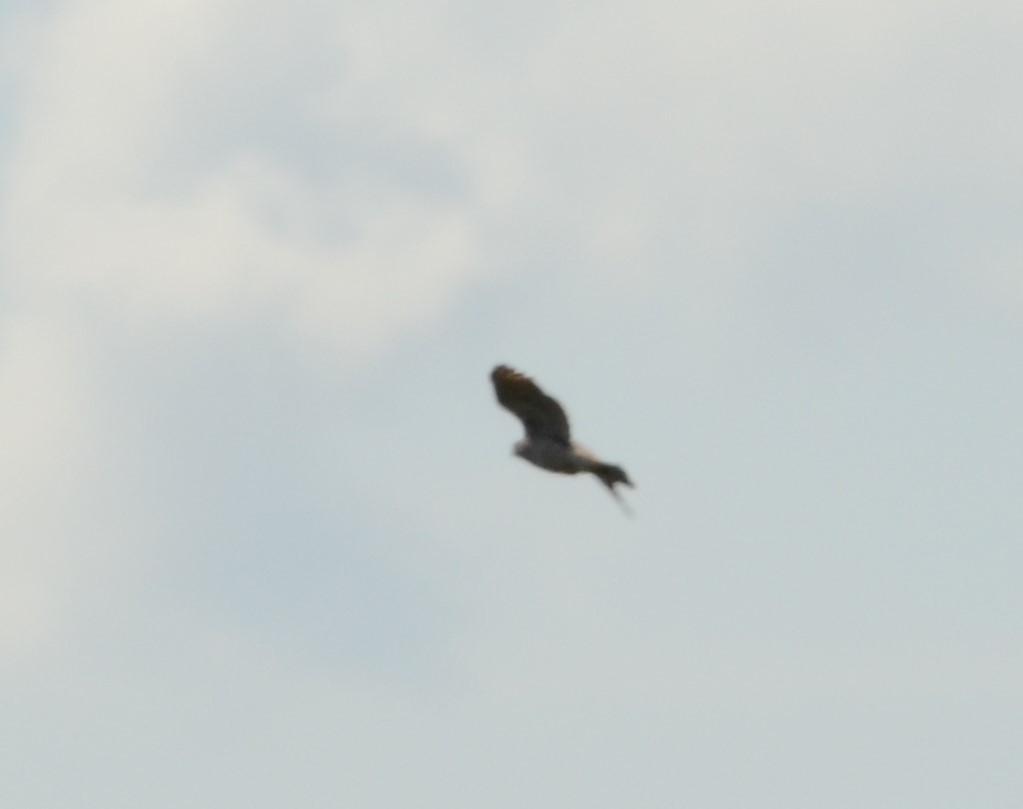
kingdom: Animalia
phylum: Chordata
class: Aves
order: Accipitriformes
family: Accipitridae
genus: Accipiter
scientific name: Accipiter nisus
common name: Eurasian sparrowhawk
